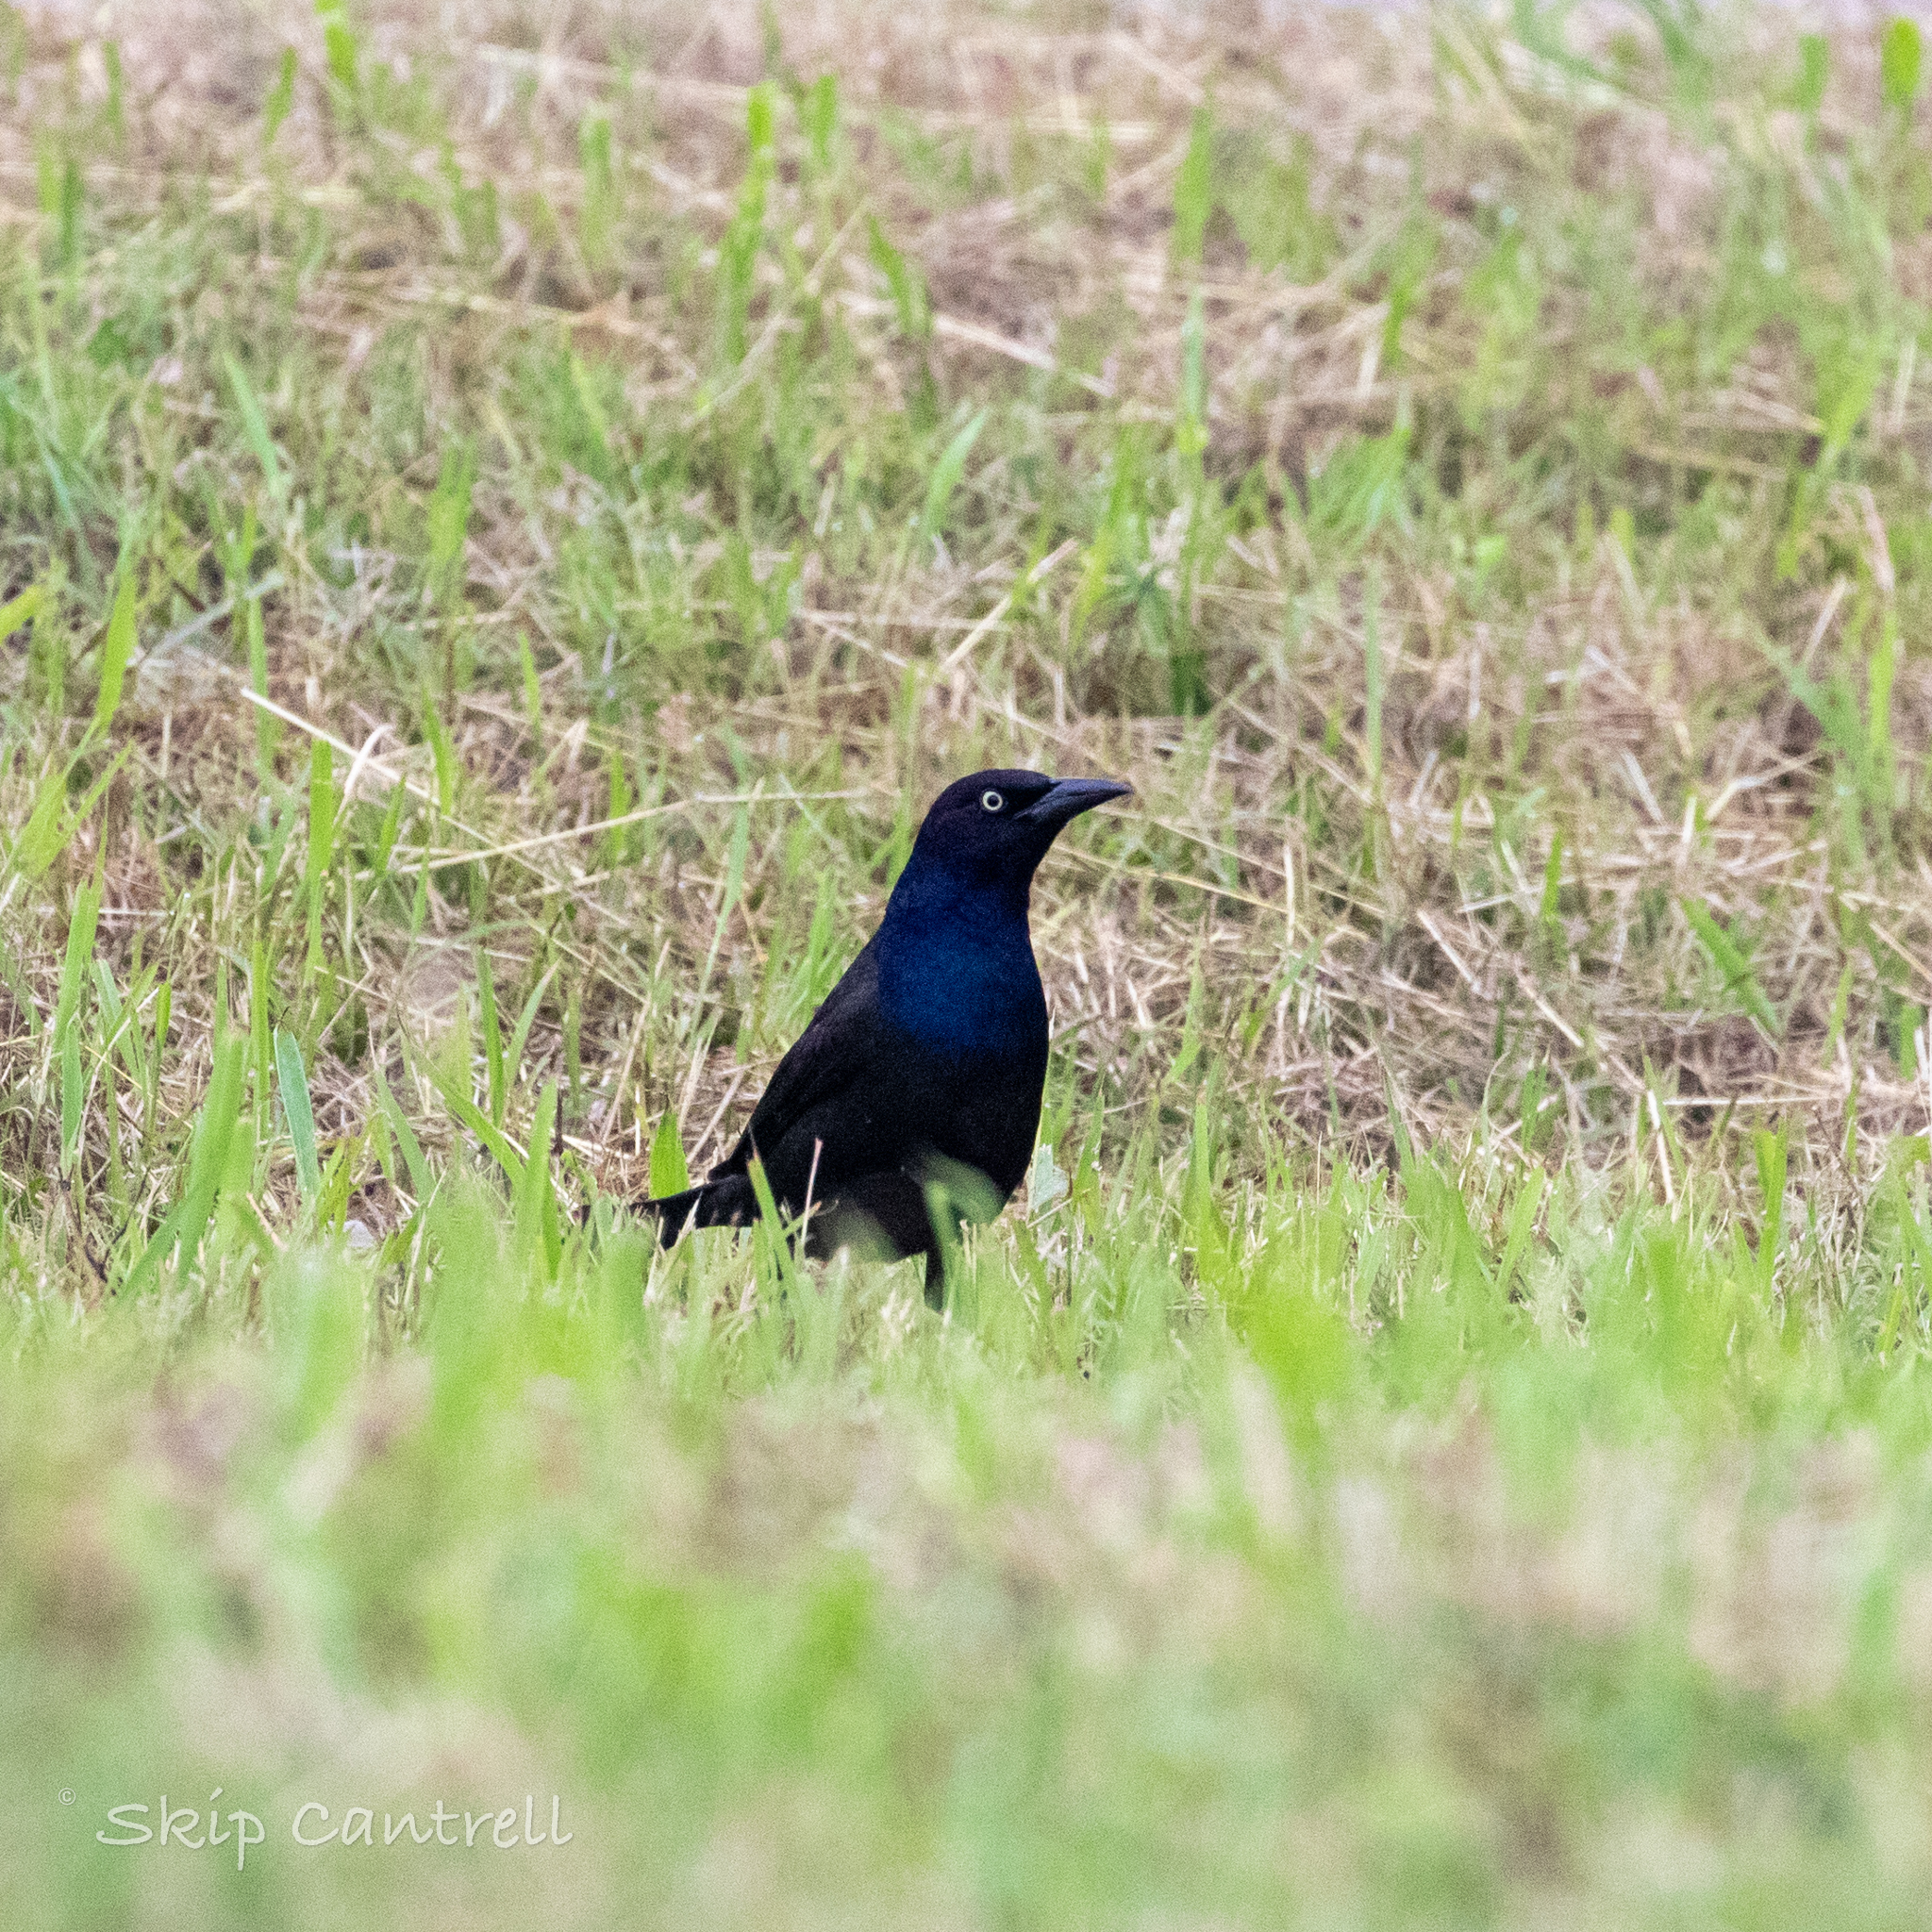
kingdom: Animalia
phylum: Chordata
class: Aves
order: Passeriformes
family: Icteridae
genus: Quiscalus
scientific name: Quiscalus quiscula
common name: Common grackle
